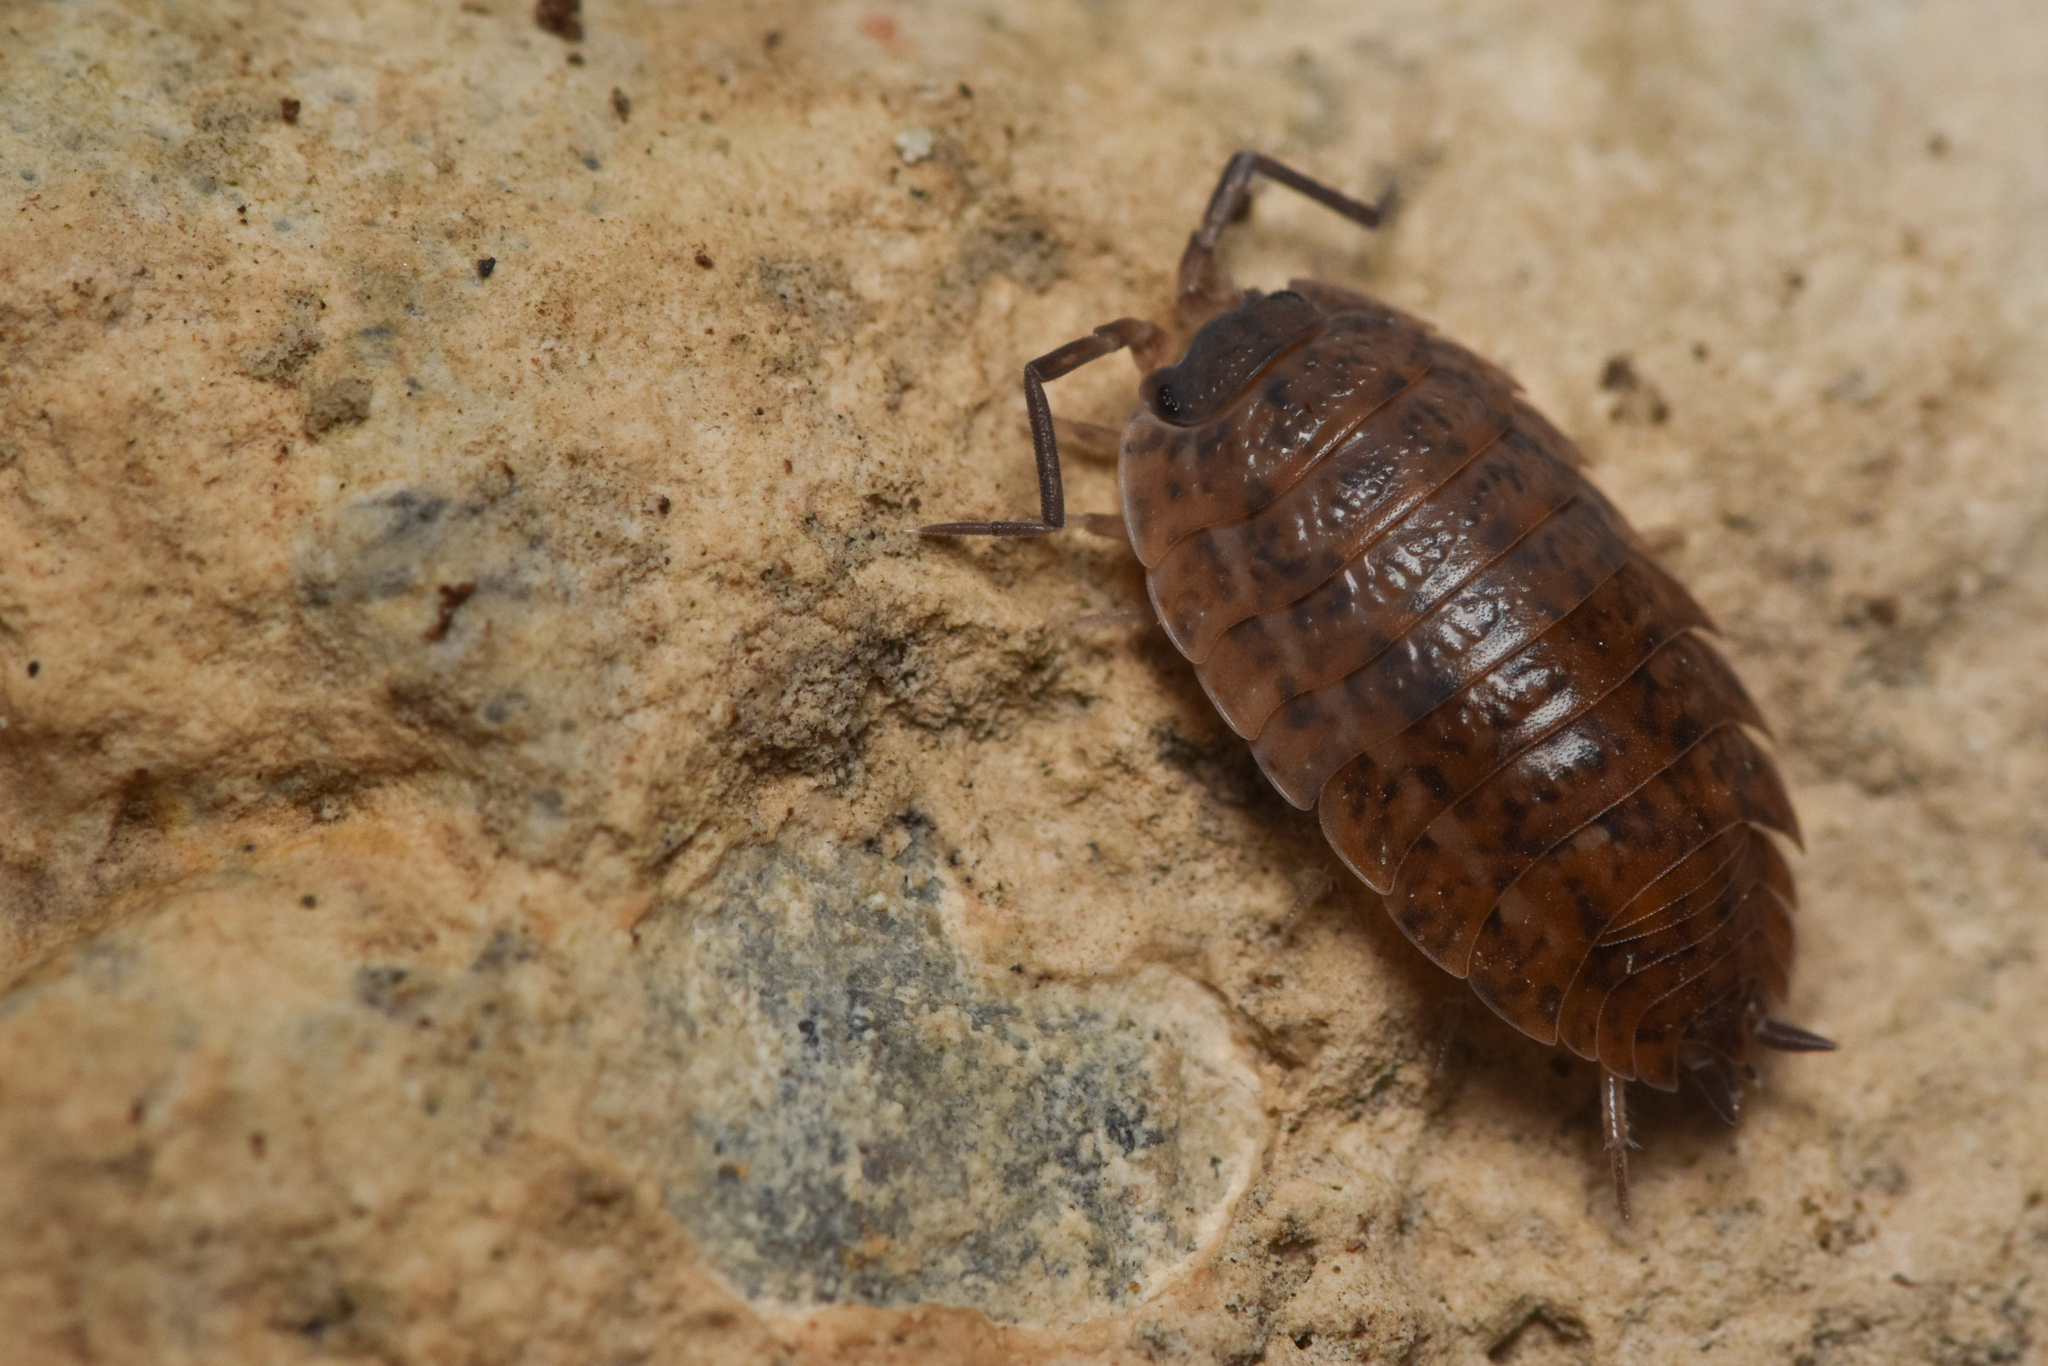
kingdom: Animalia
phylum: Arthropoda
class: Malacostraca
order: Isopoda
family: Trachelipodidae
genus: Trachelipus
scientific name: Trachelipus rathkii
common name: Isopod
